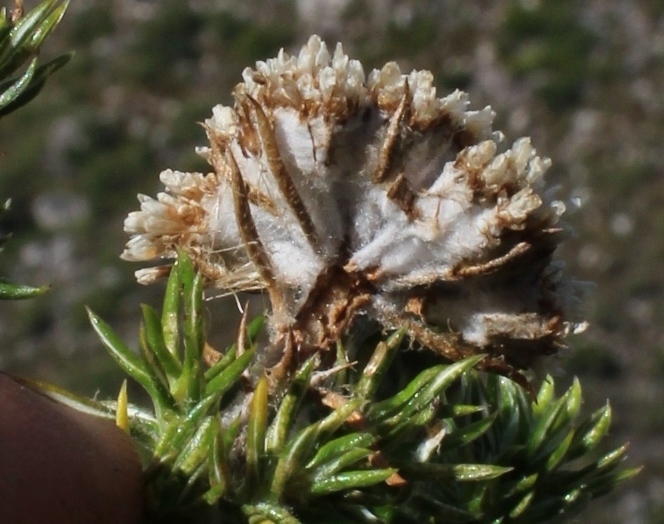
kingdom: Plantae
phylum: Tracheophyta
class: Magnoliopsida
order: Asterales
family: Asteraceae
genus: Metalasia
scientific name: Metalasia muraltiifolia
